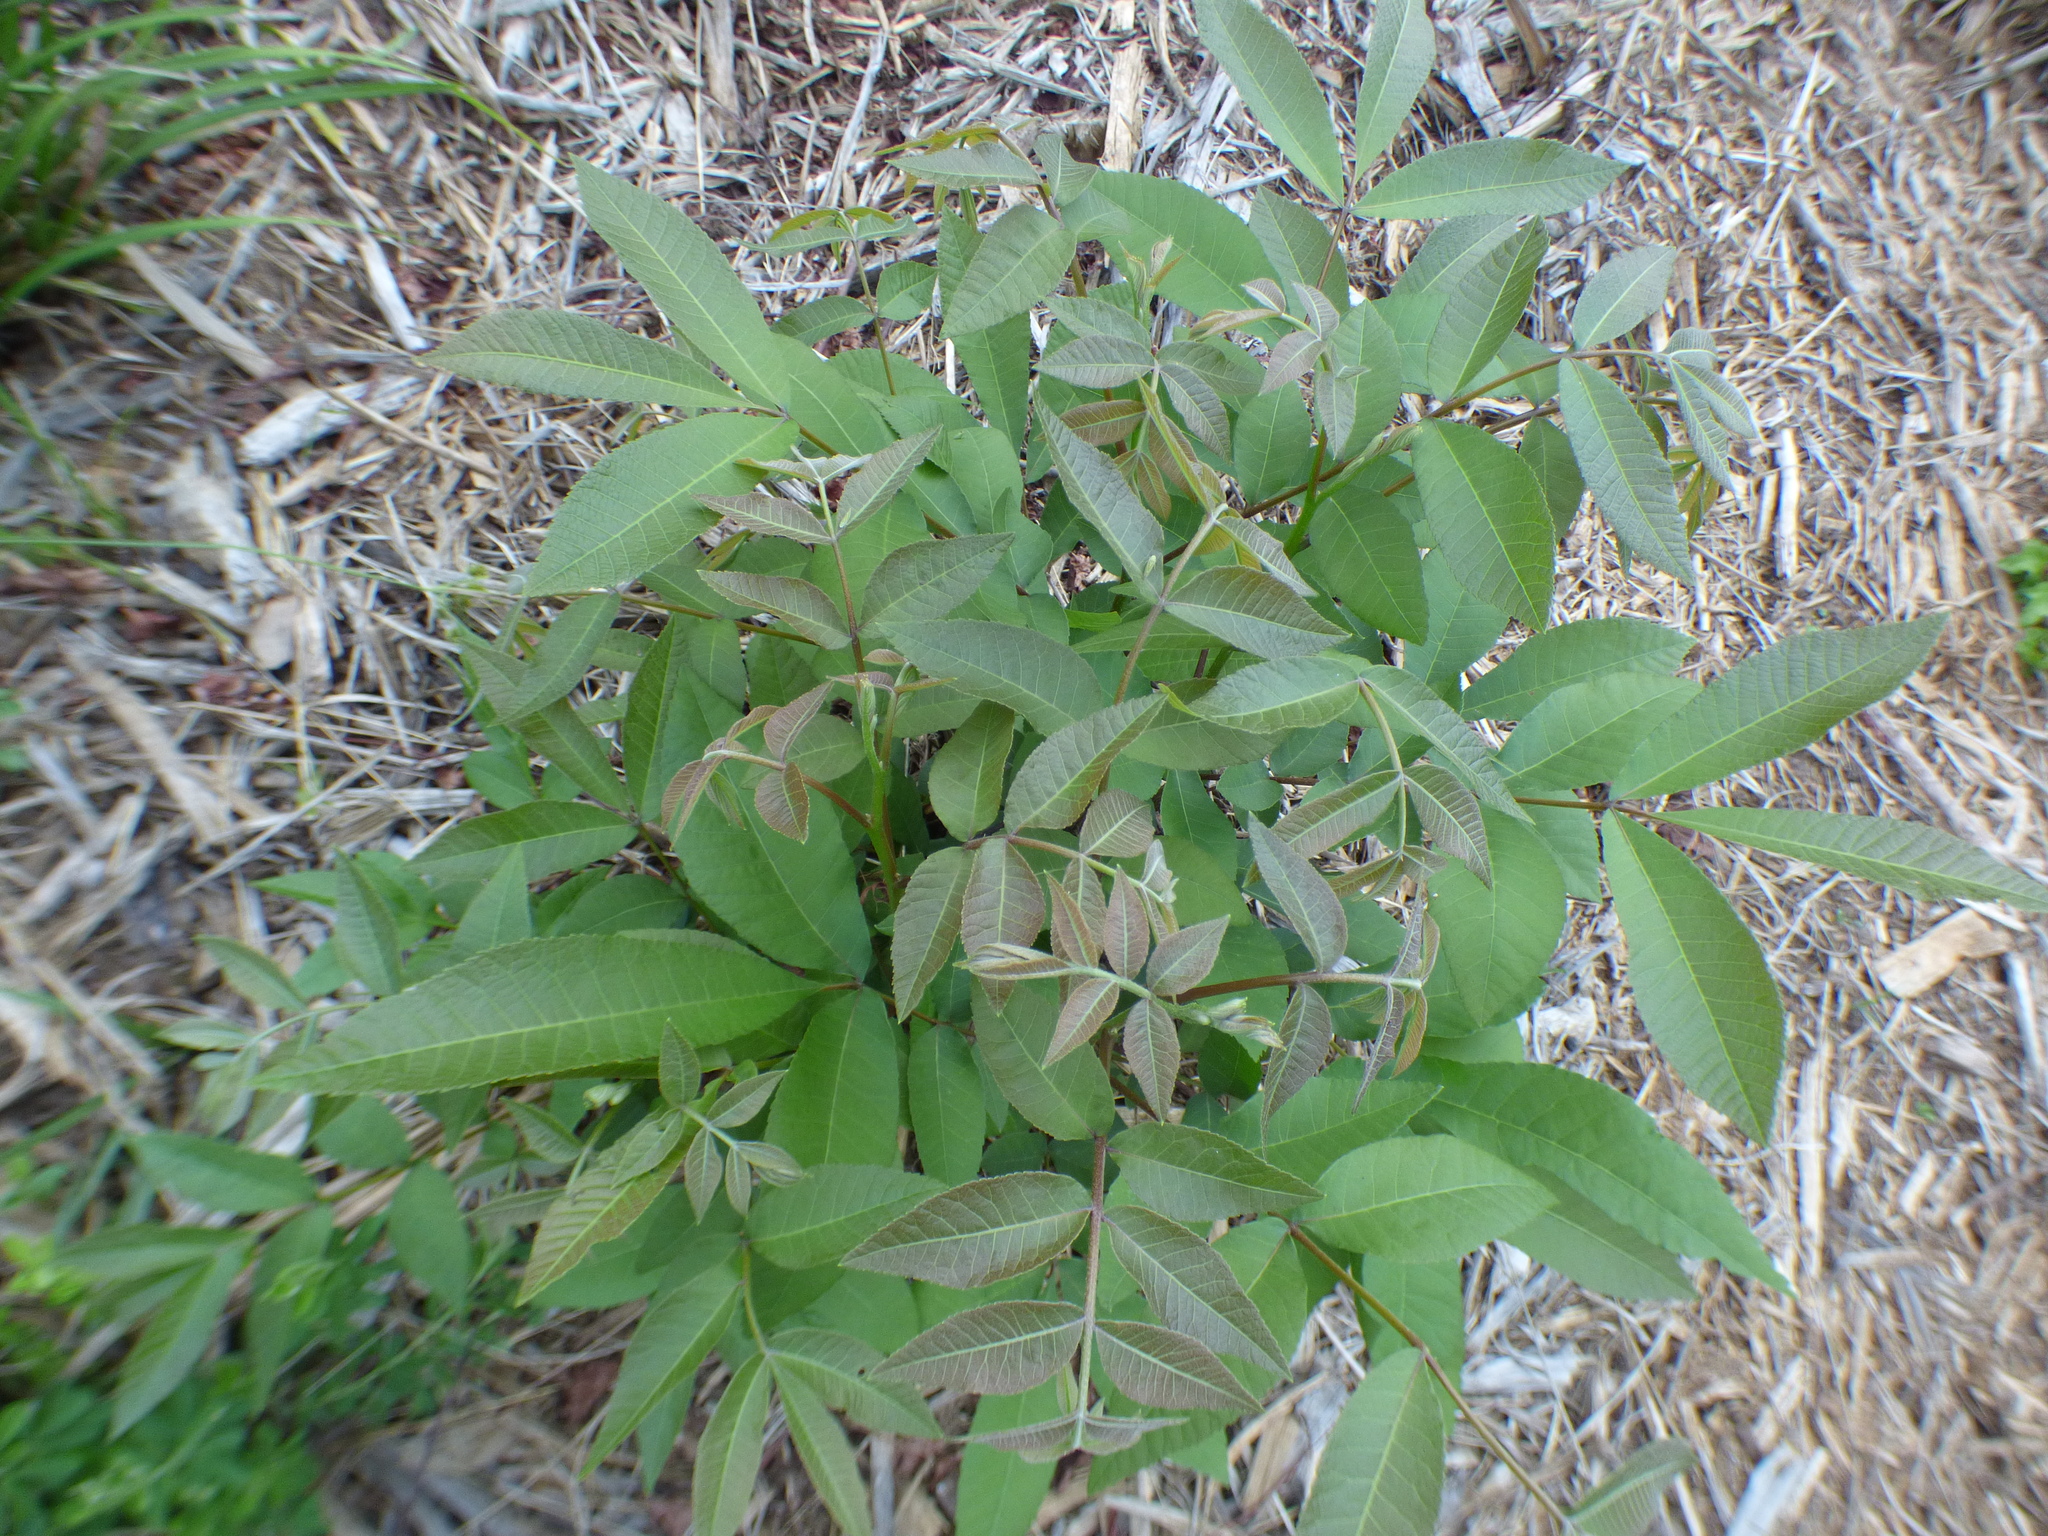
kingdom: Plantae
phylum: Tracheophyta
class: Magnoliopsida
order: Fagales
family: Juglandaceae
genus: Carya
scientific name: Carya illinoinensis
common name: Pecan
